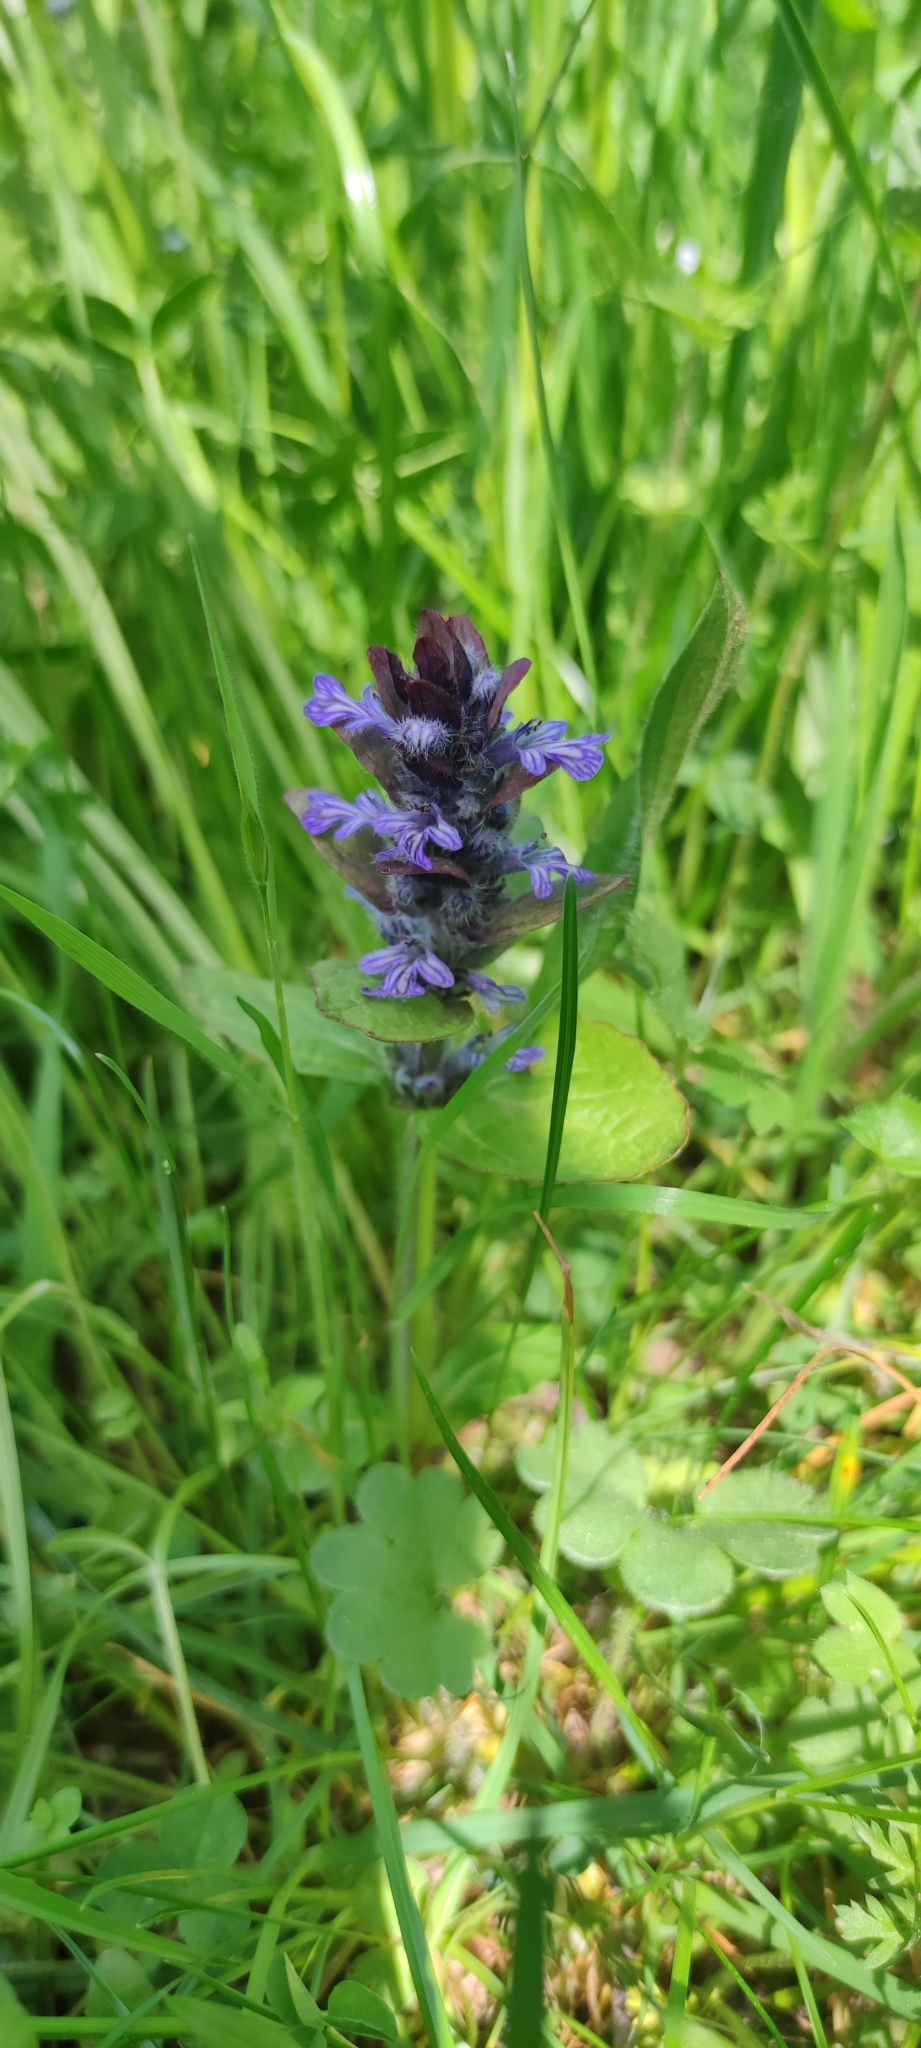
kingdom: Plantae
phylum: Tracheophyta
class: Magnoliopsida
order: Lamiales
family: Lamiaceae
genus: Ajuga
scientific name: Ajuga reptans
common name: Bugle
